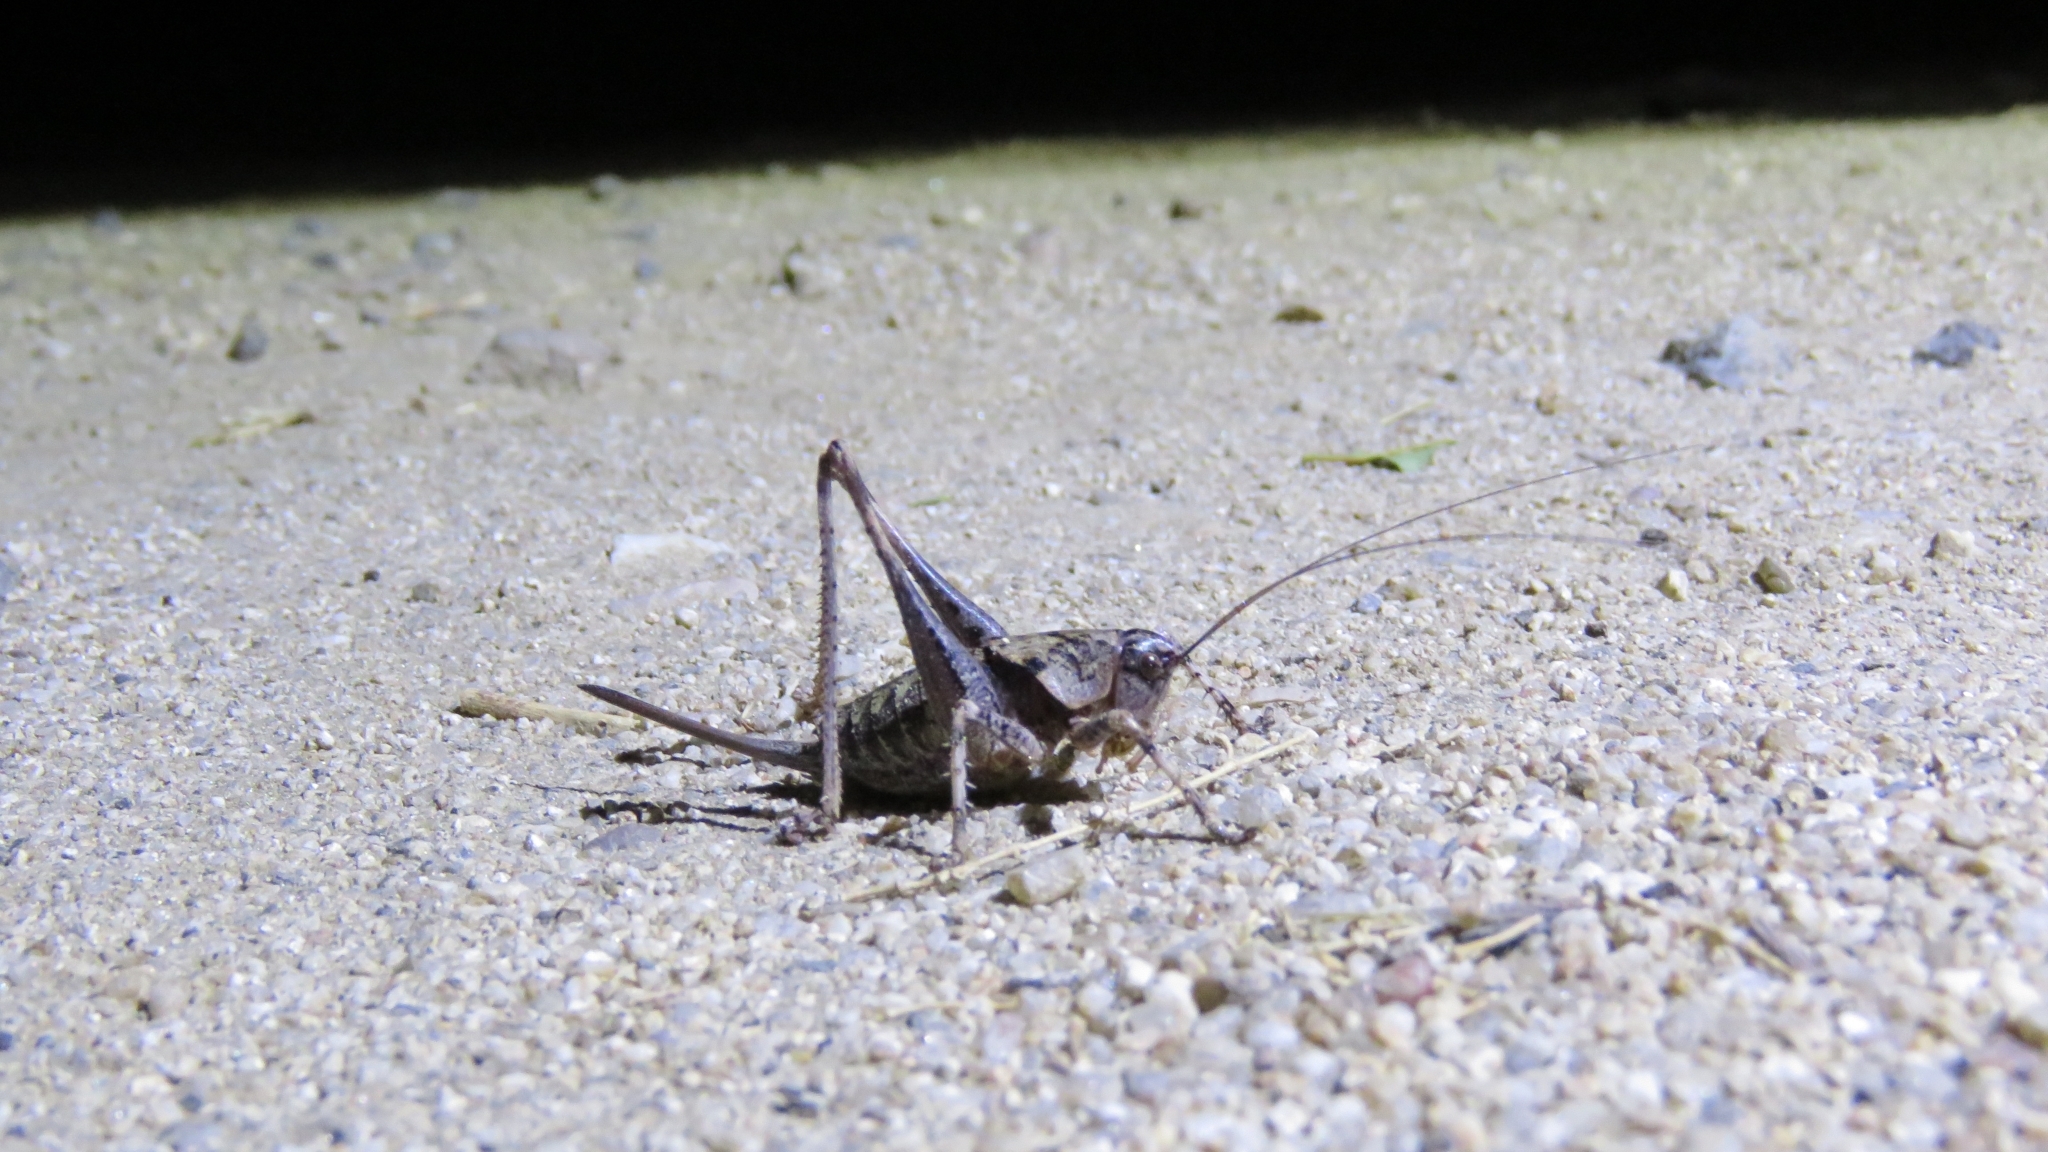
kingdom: Animalia
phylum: Arthropoda
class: Insecta
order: Orthoptera
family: Tettigoniidae
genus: Thyreonotus
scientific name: Thyreonotus bidens
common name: Two-toothed bush-cricket
